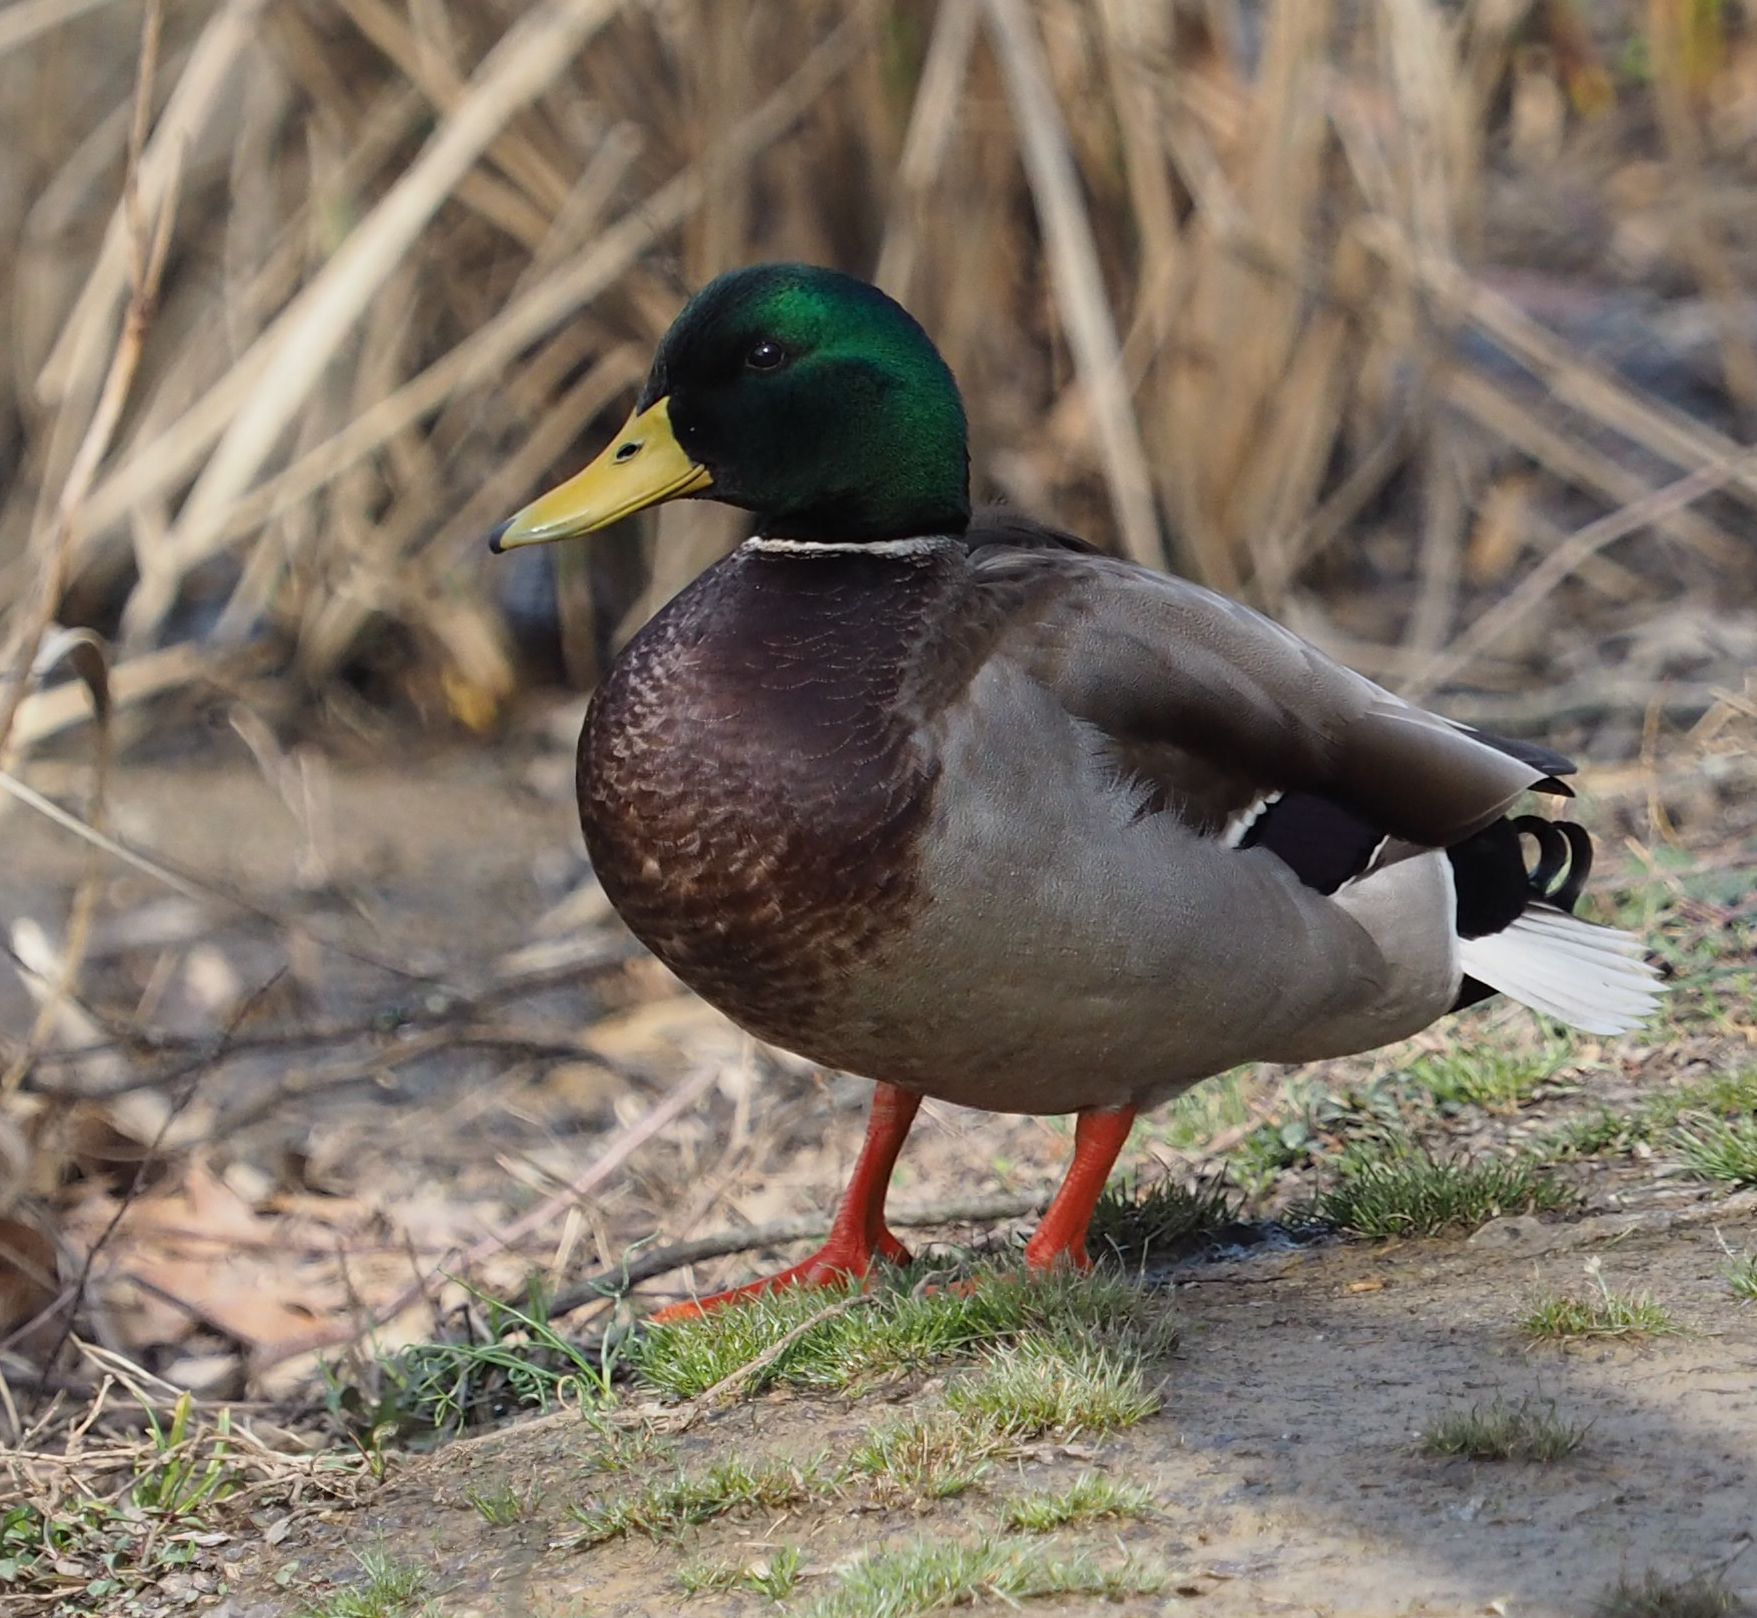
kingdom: Animalia
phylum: Chordata
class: Aves
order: Anseriformes
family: Anatidae
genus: Anas
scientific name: Anas platyrhynchos
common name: Mallard
